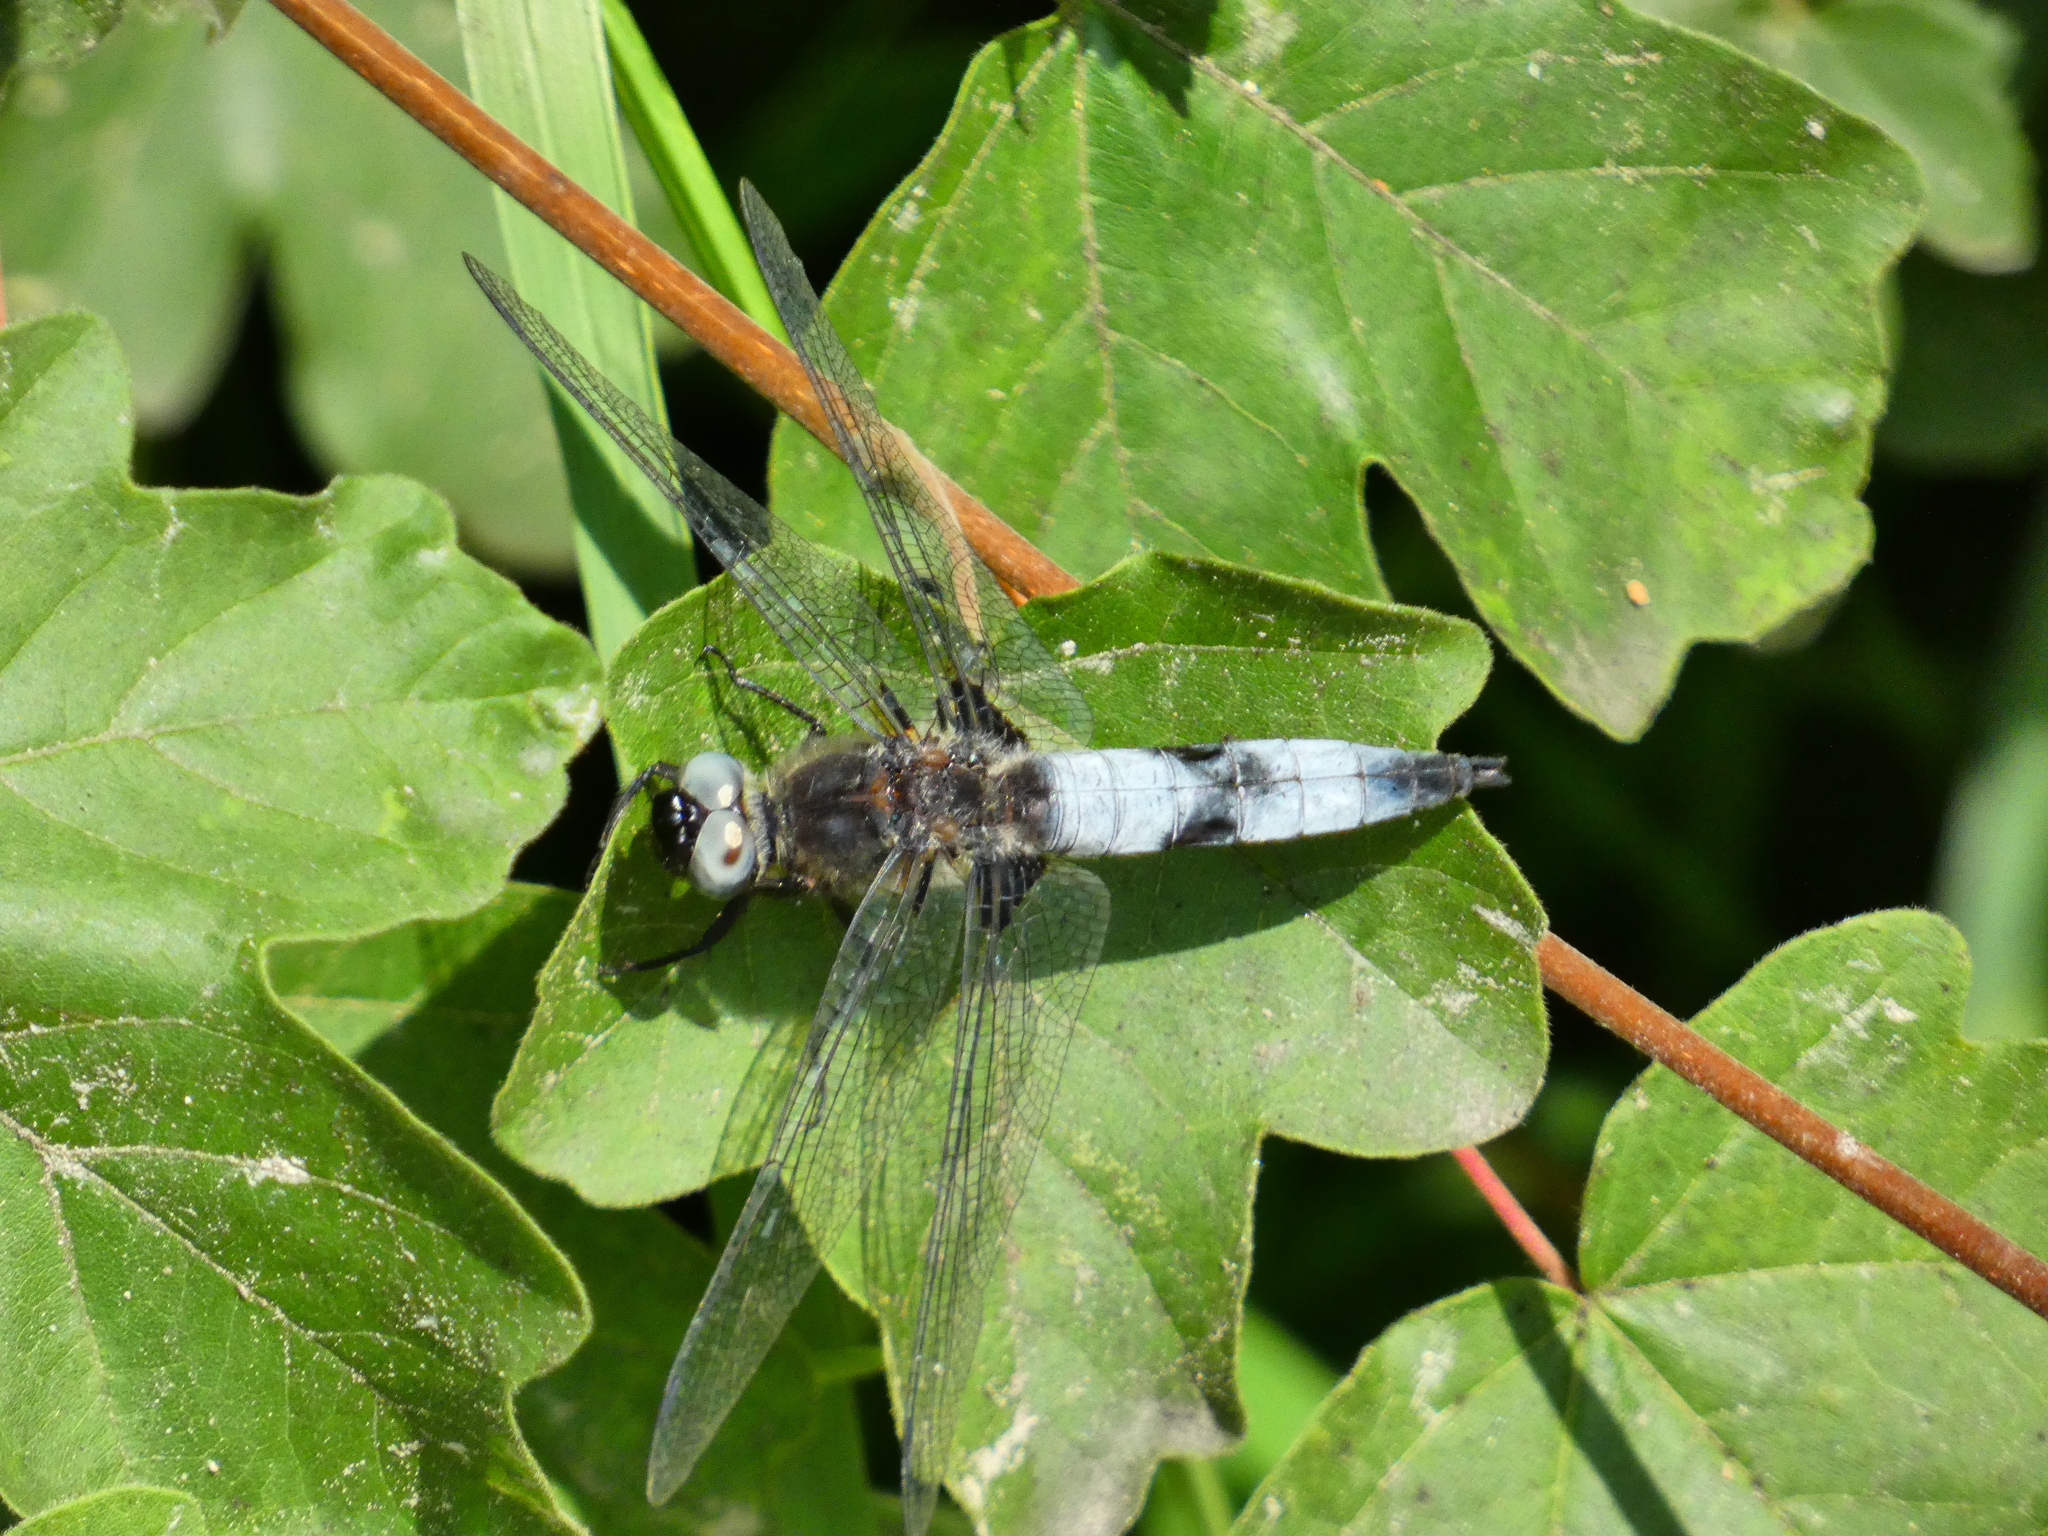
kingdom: Animalia
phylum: Arthropoda
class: Insecta
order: Odonata
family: Libellulidae
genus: Libellula
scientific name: Libellula fulva
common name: Blue chaser
